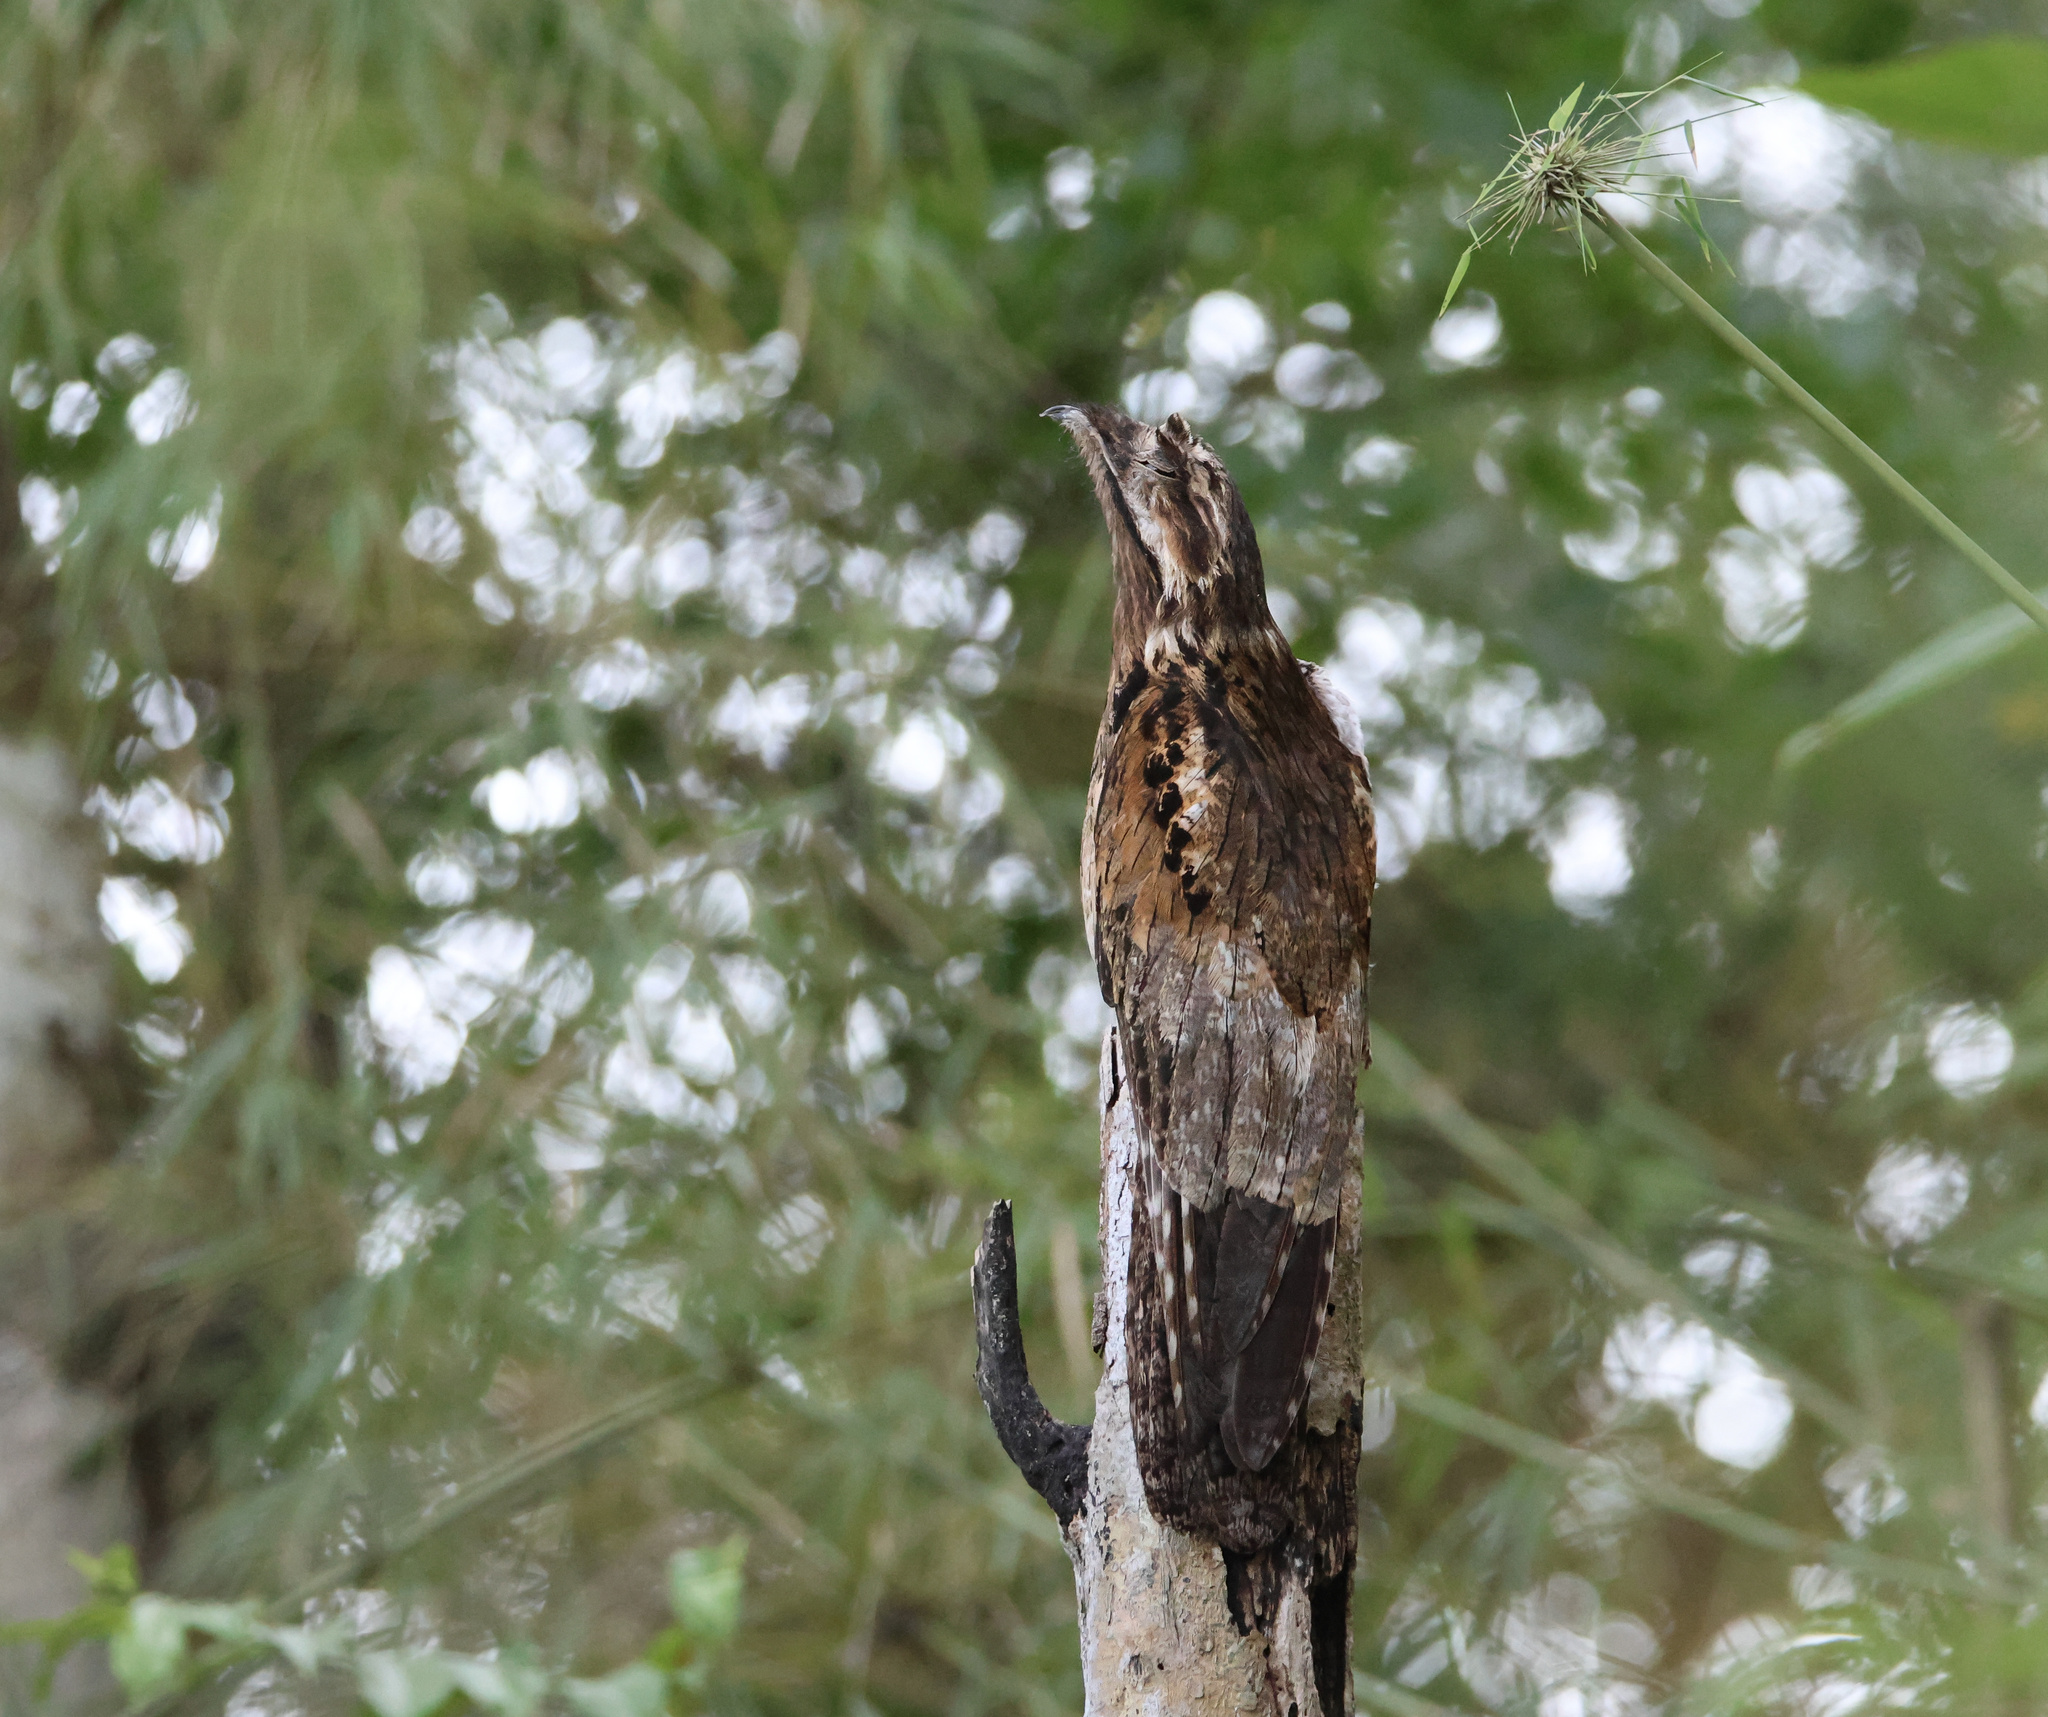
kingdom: Animalia
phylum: Chordata
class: Aves
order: Nyctibiiformes
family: Nyctibiidae
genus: Nyctibius
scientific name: Nyctibius griseus
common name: Common potoo
